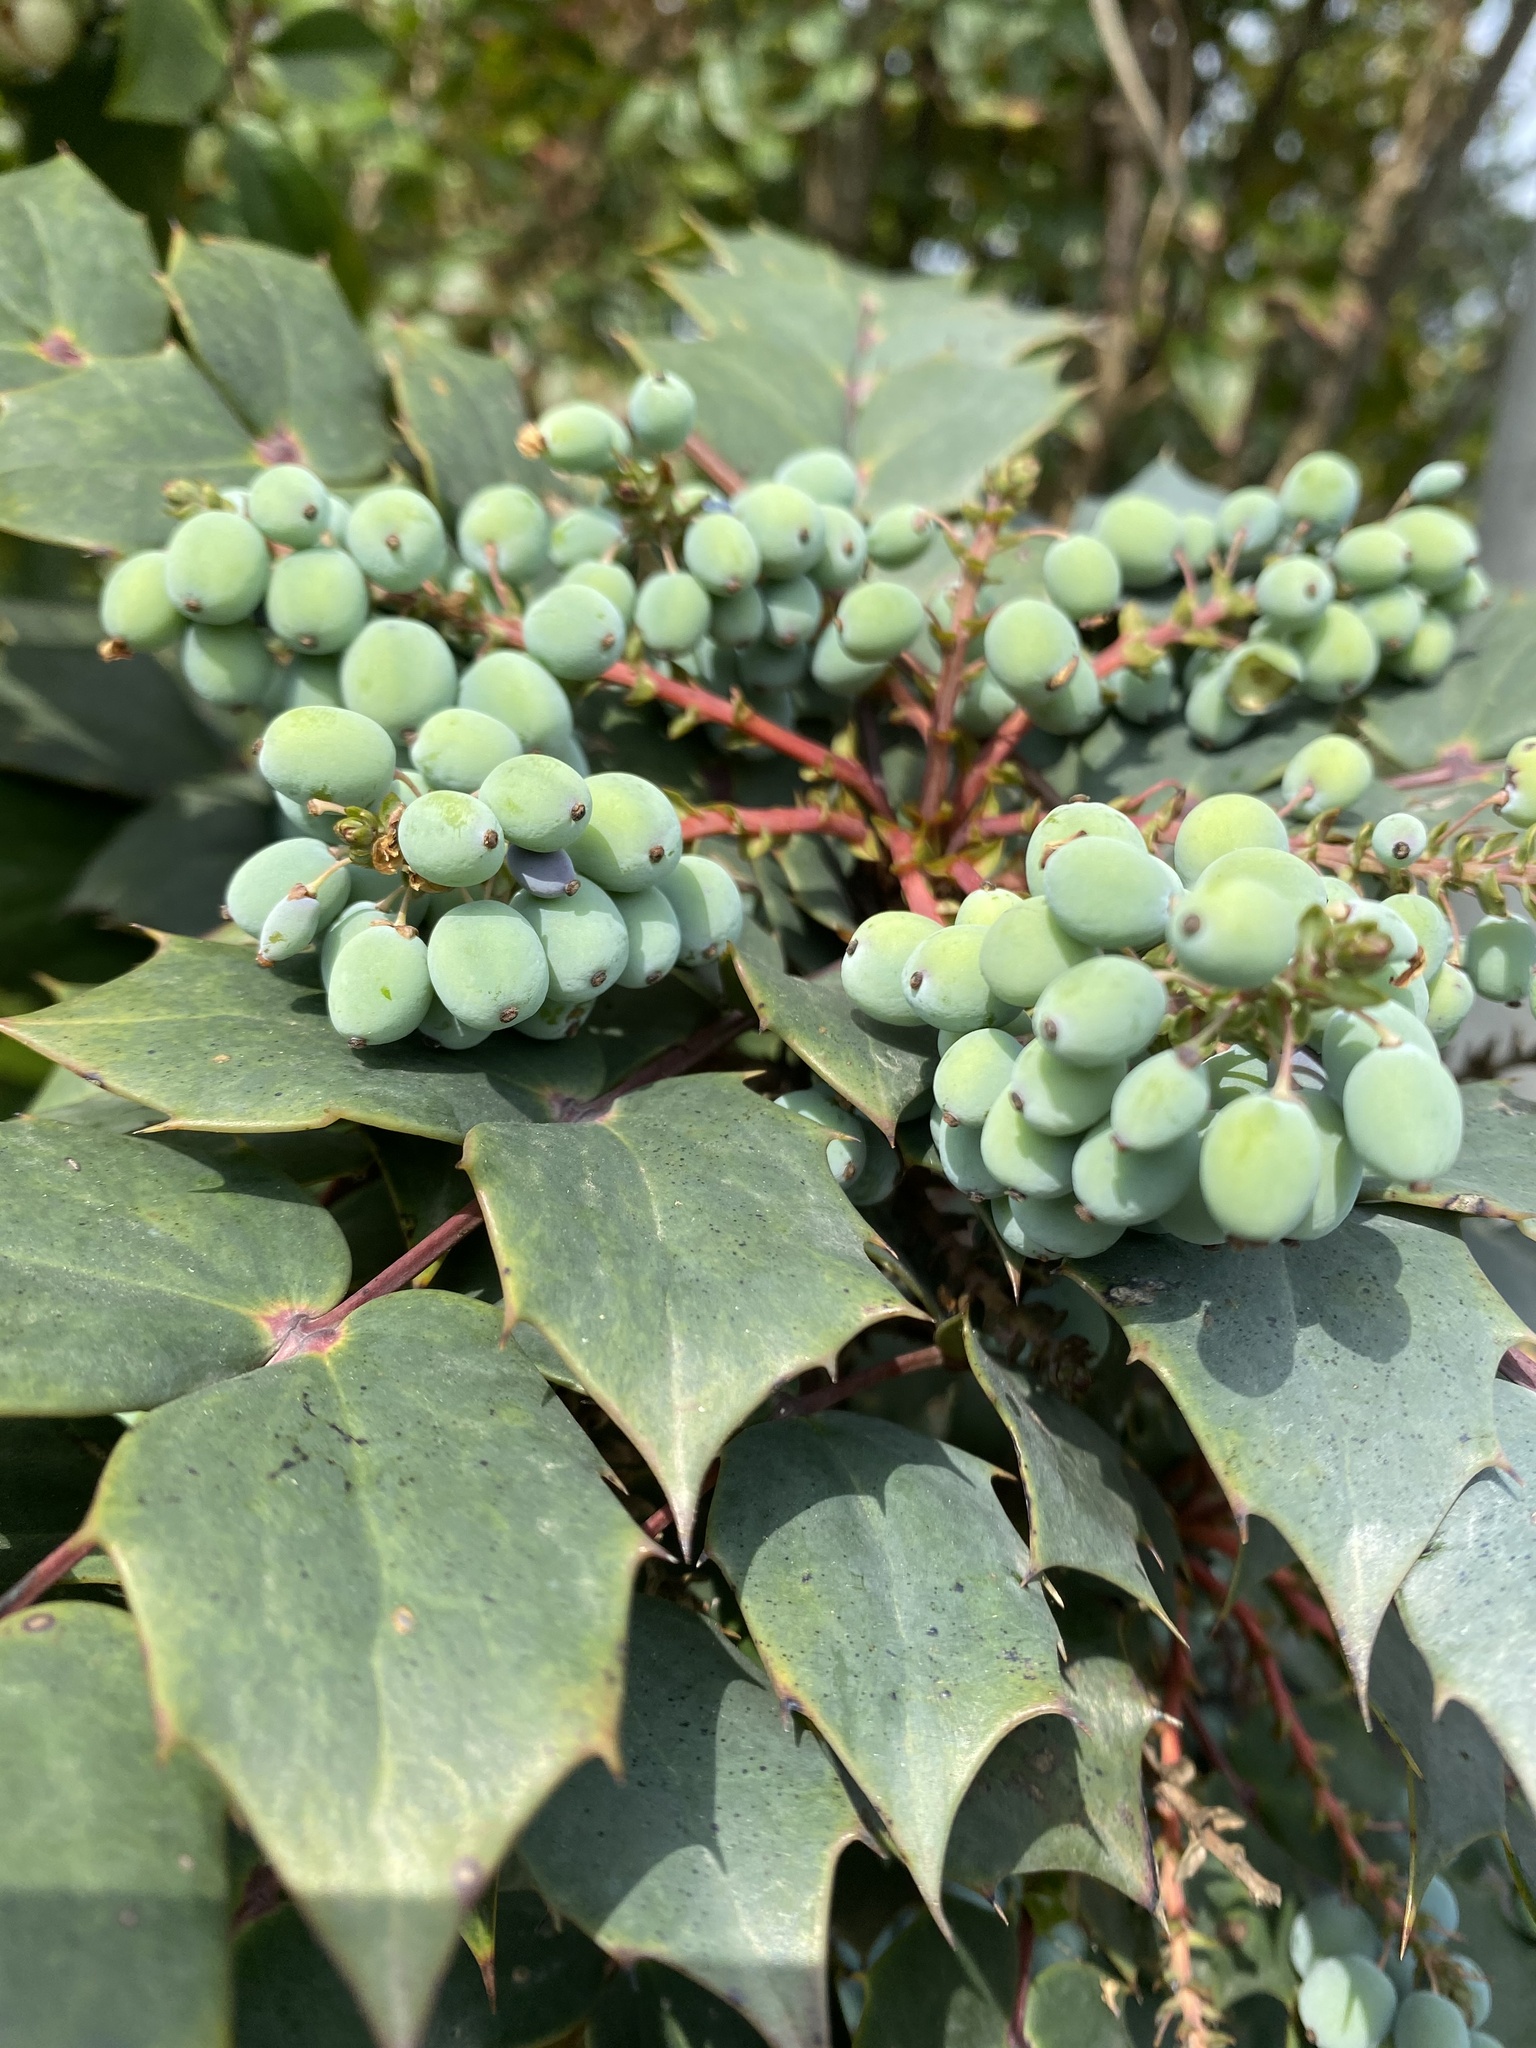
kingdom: Plantae
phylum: Tracheophyta
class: Magnoliopsida
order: Ranunculales
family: Berberidaceae
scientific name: Berberidaceae
